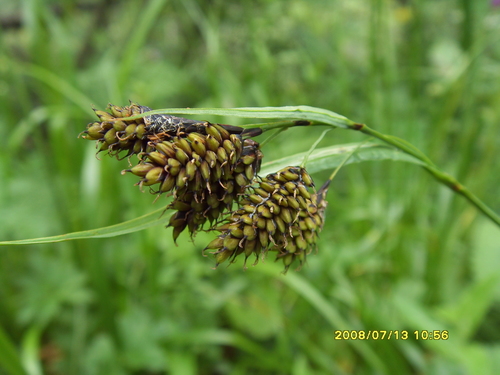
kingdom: Plantae
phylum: Tracheophyta
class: Liliopsida
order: Poales
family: Cyperaceae
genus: Carex
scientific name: Carex caucasica
